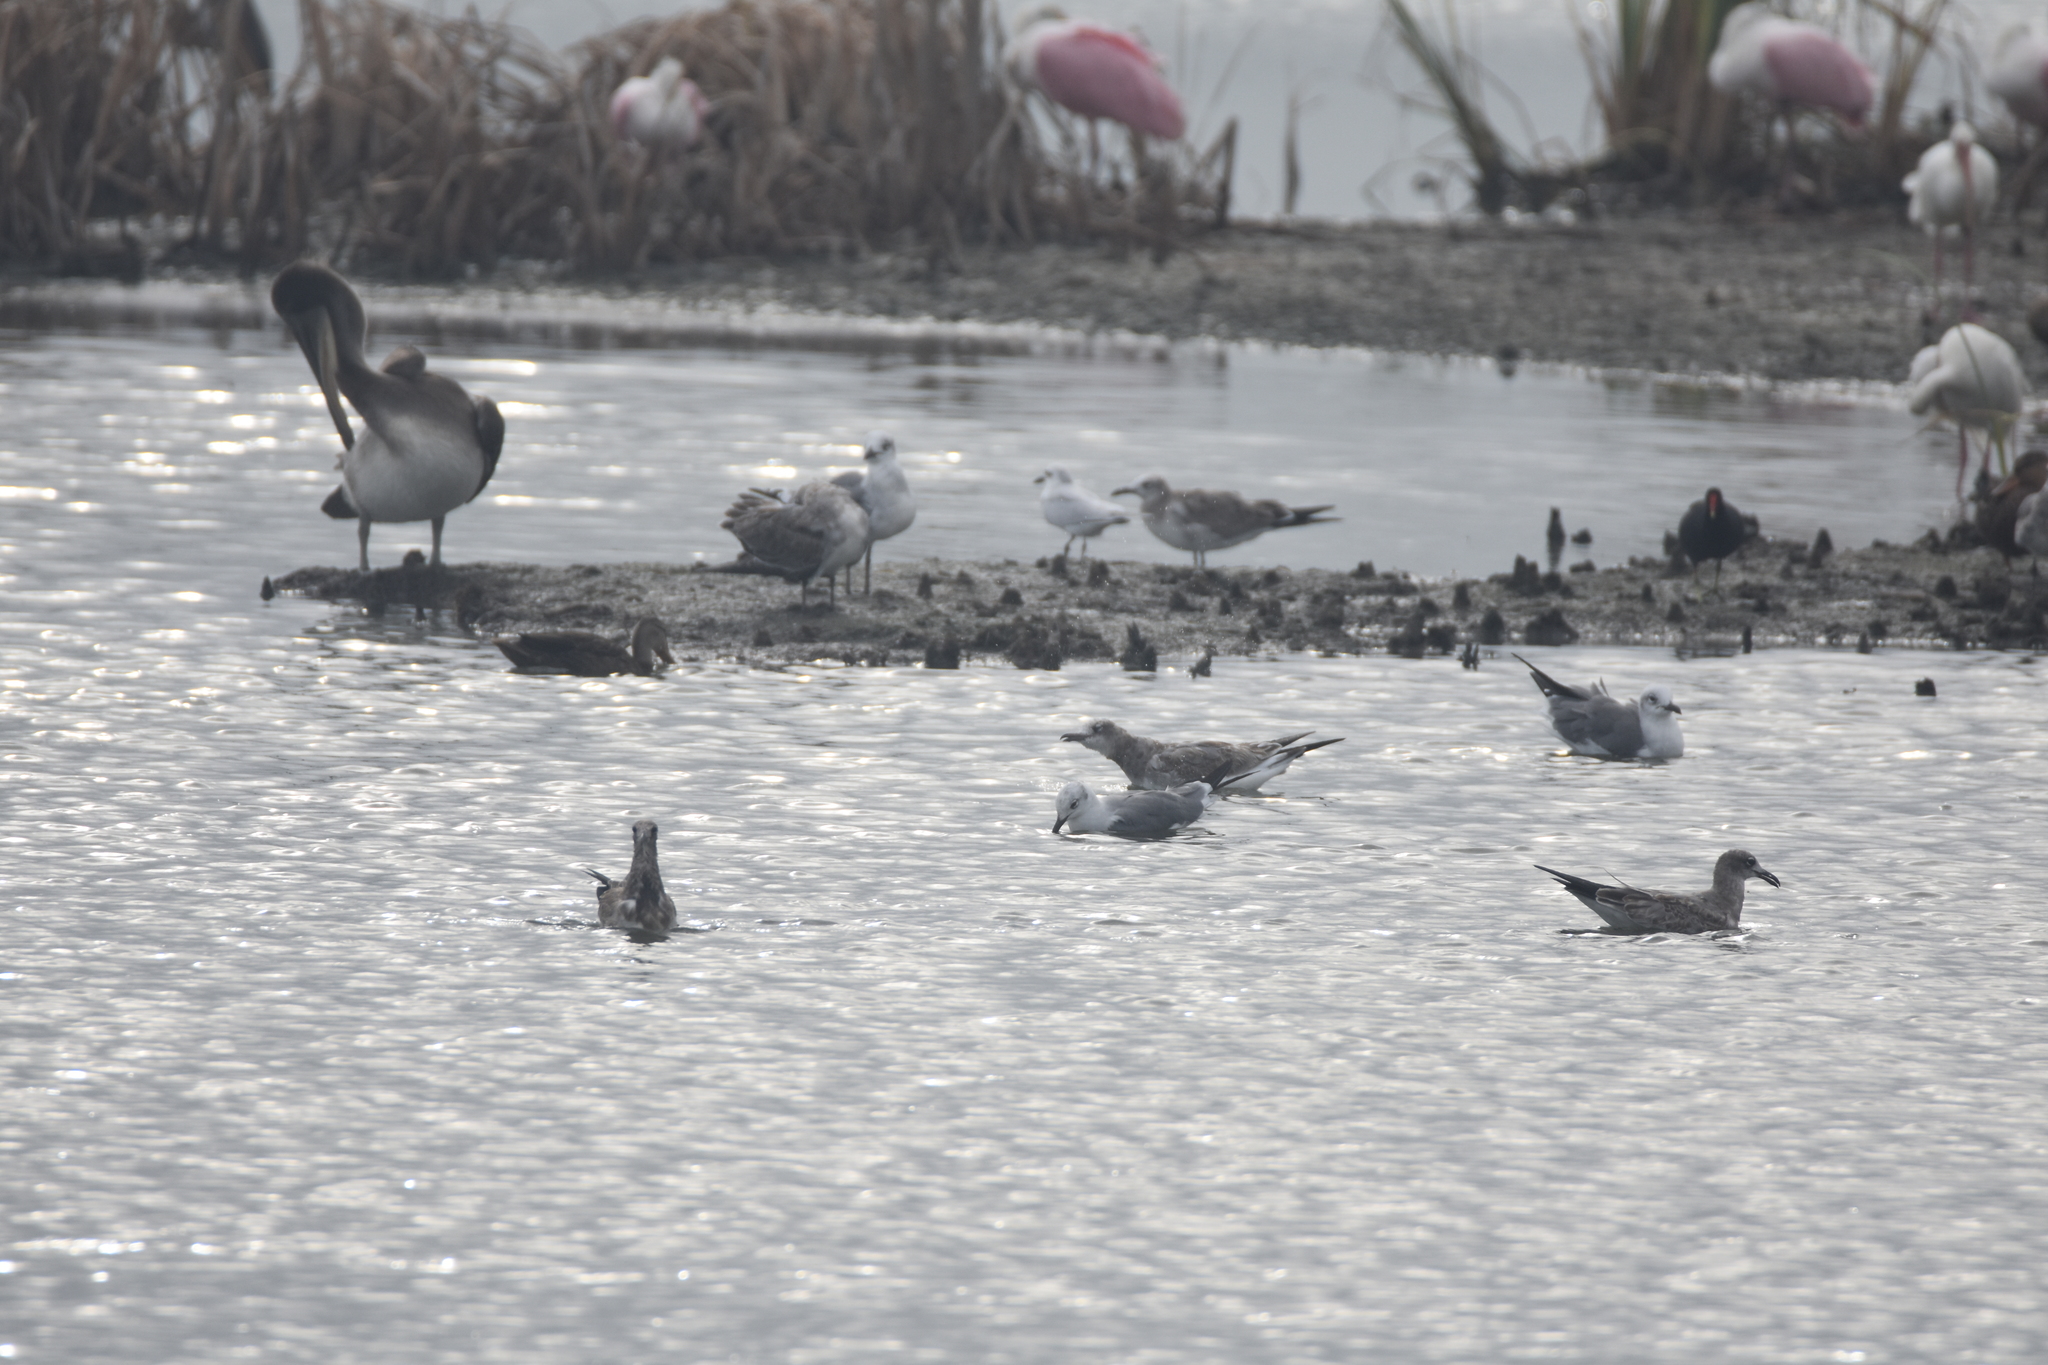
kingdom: Animalia
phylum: Chordata
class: Aves
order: Pelecaniformes
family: Pelecanidae
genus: Pelecanus
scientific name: Pelecanus occidentalis
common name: Brown pelican
